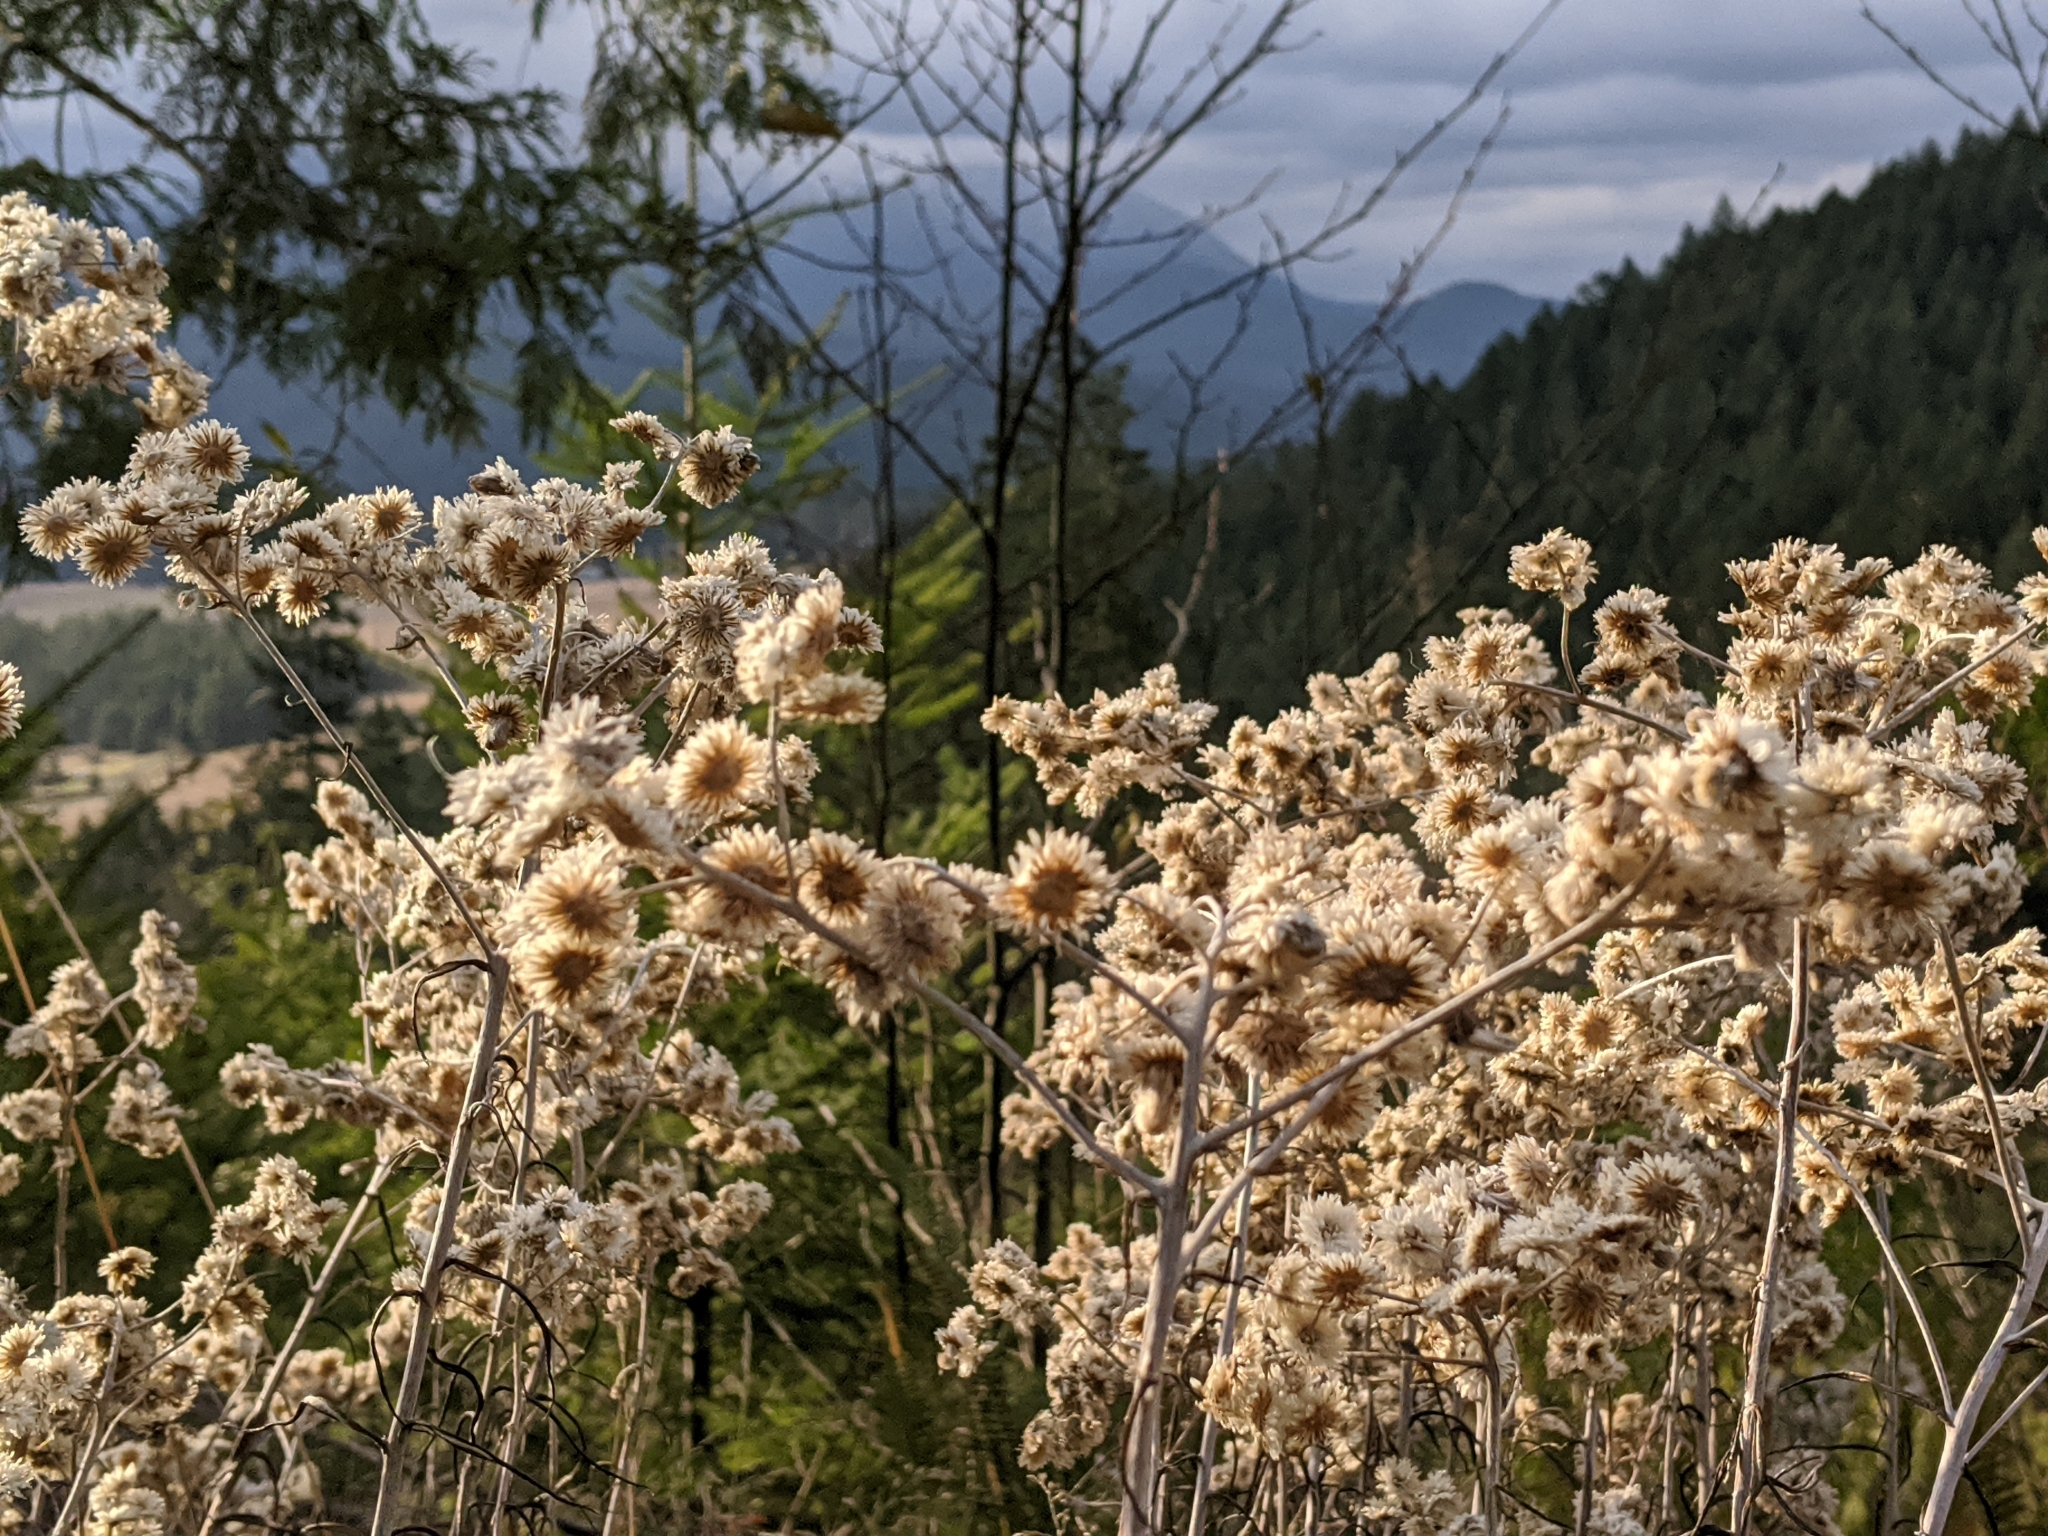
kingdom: Plantae
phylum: Tracheophyta
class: Magnoliopsida
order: Asterales
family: Asteraceae
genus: Anaphalis
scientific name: Anaphalis margaritacea
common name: Pearly everlasting
